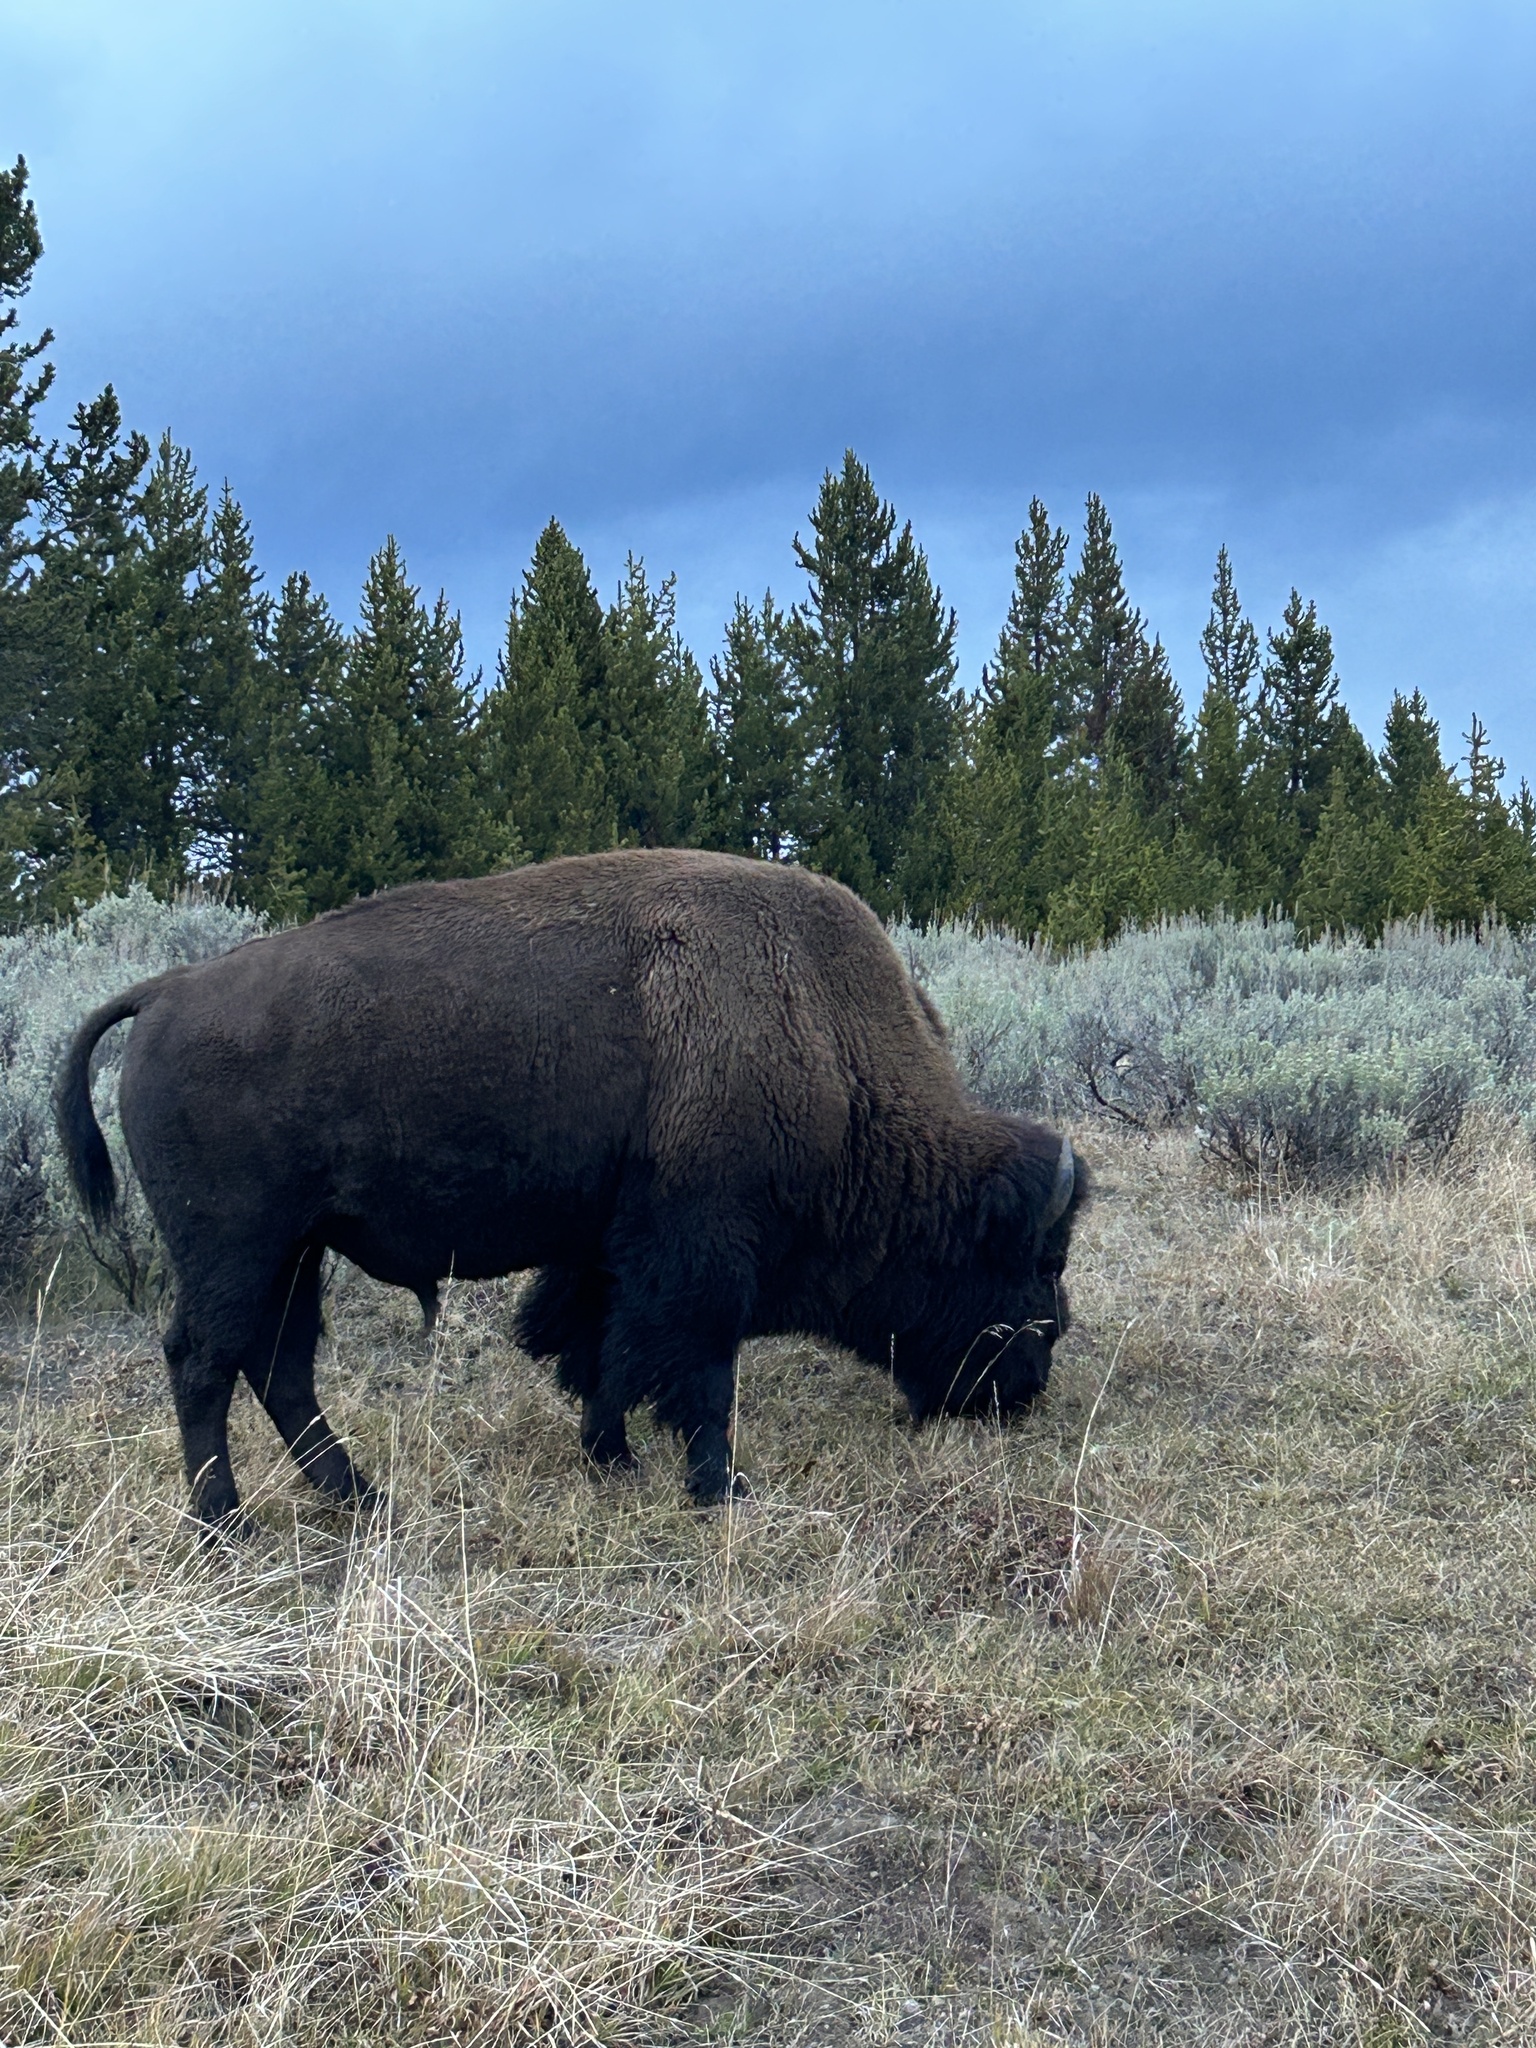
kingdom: Animalia
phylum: Chordata
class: Mammalia
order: Artiodactyla
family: Bovidae
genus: Bison
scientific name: Bison bison
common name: American bison
